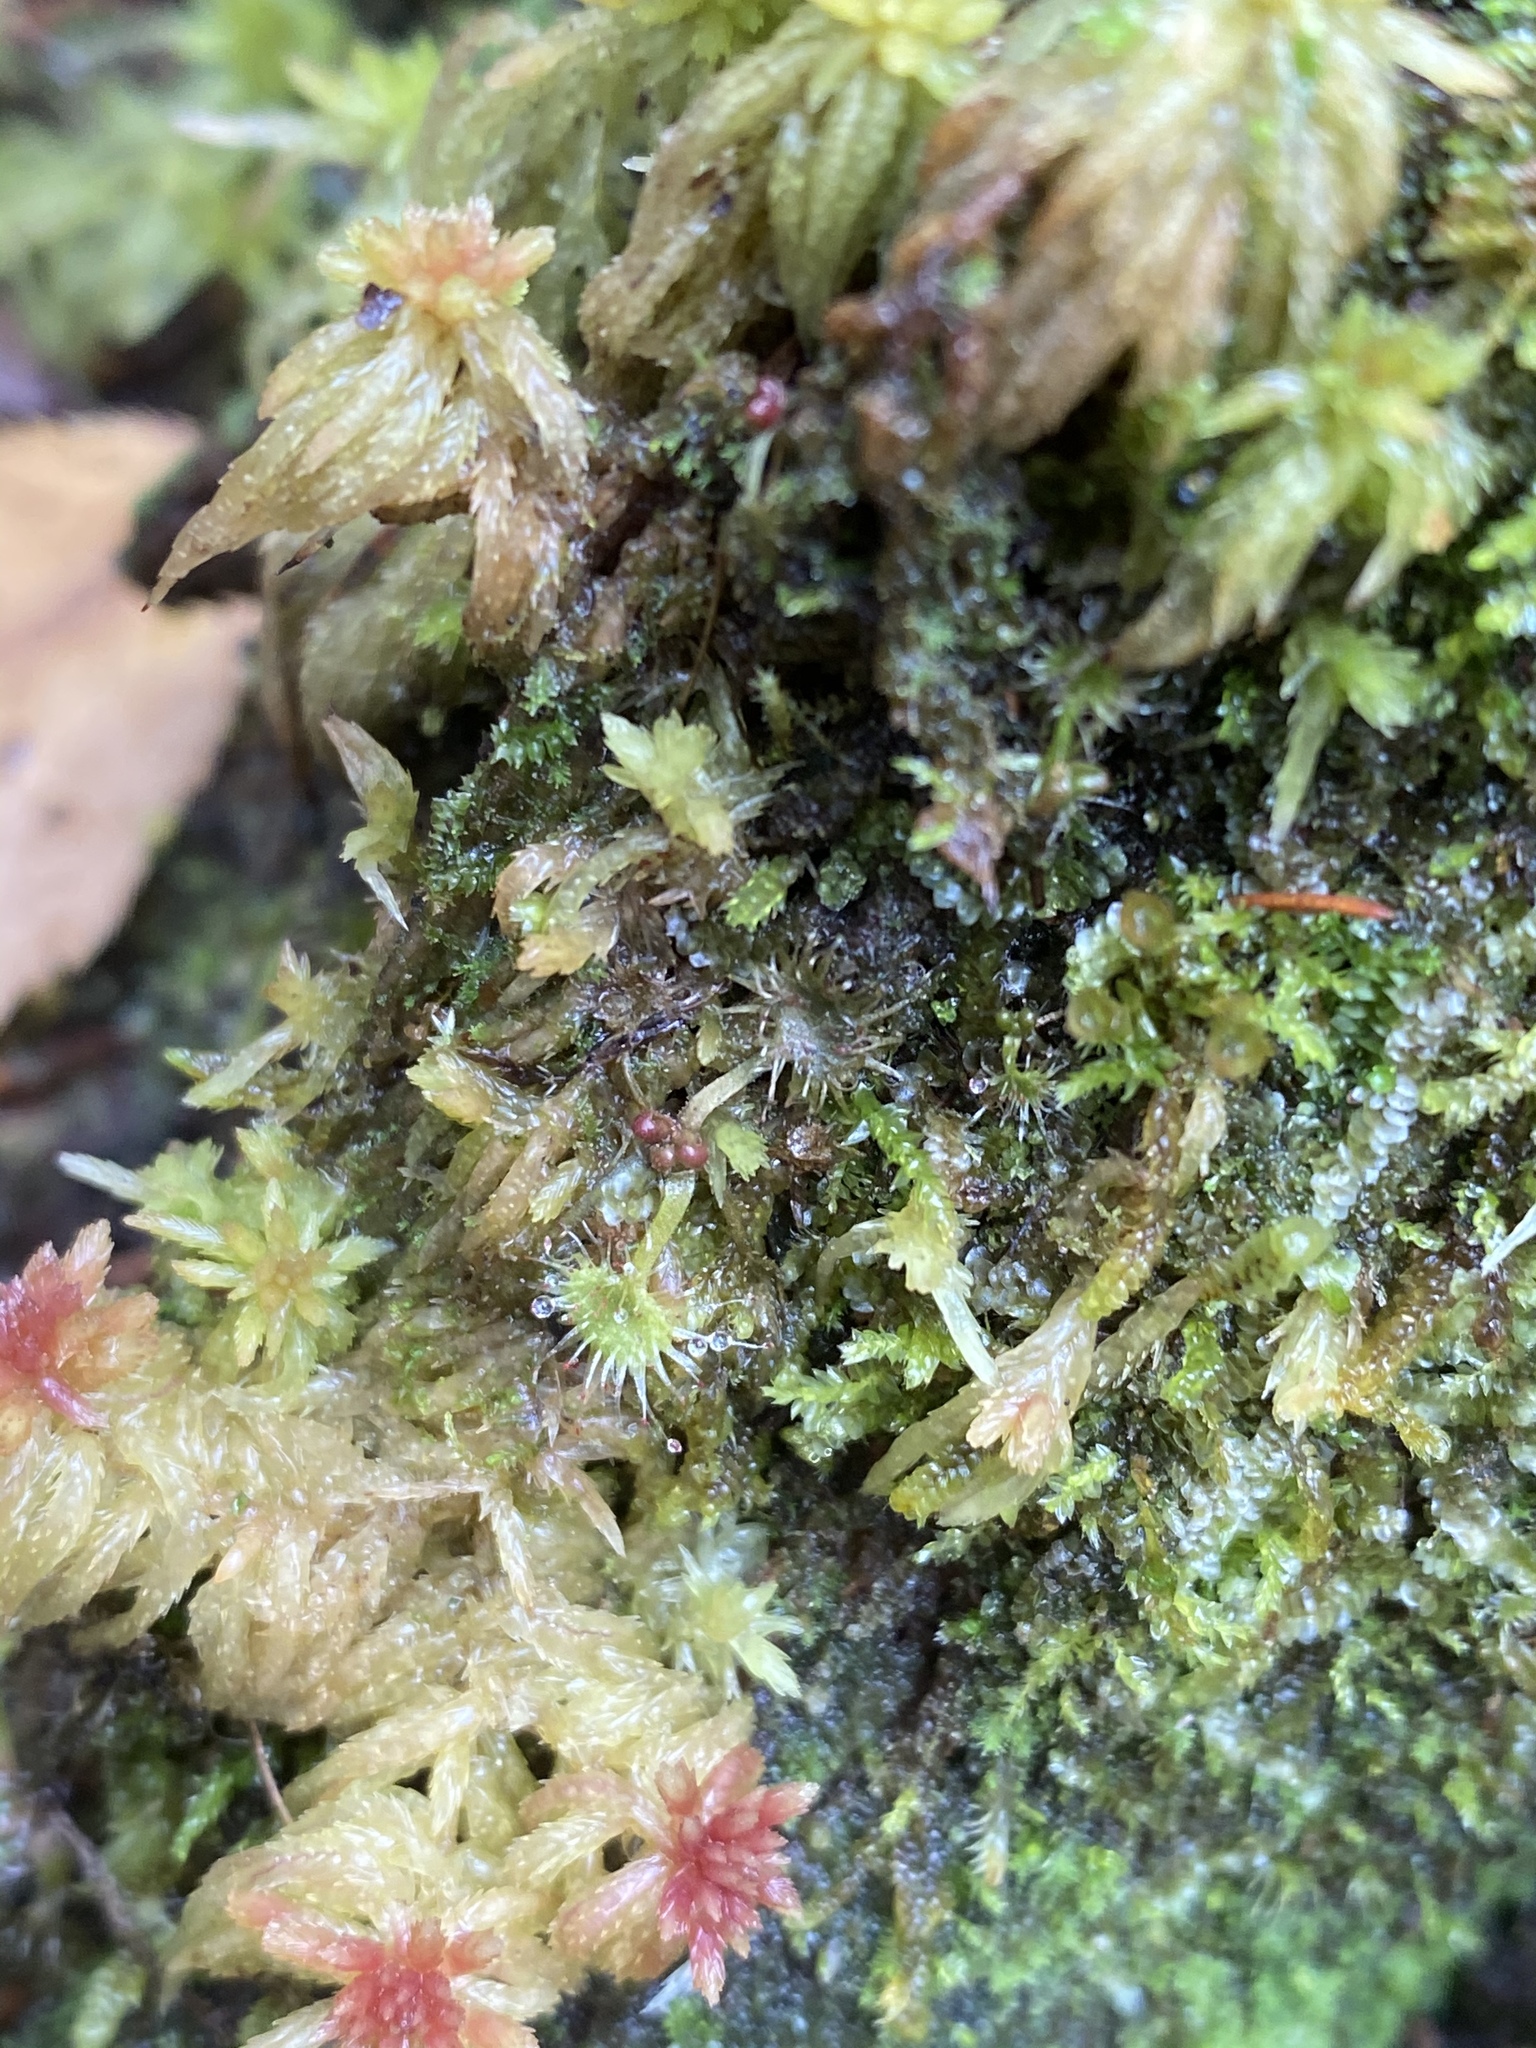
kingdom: Plantae
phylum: Tracheophyta
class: Magnoliopsida
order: Caryophyllales
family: Droseraceae
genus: Drosera
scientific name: Drosera rotundifolia
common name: Round-leaved sundew
